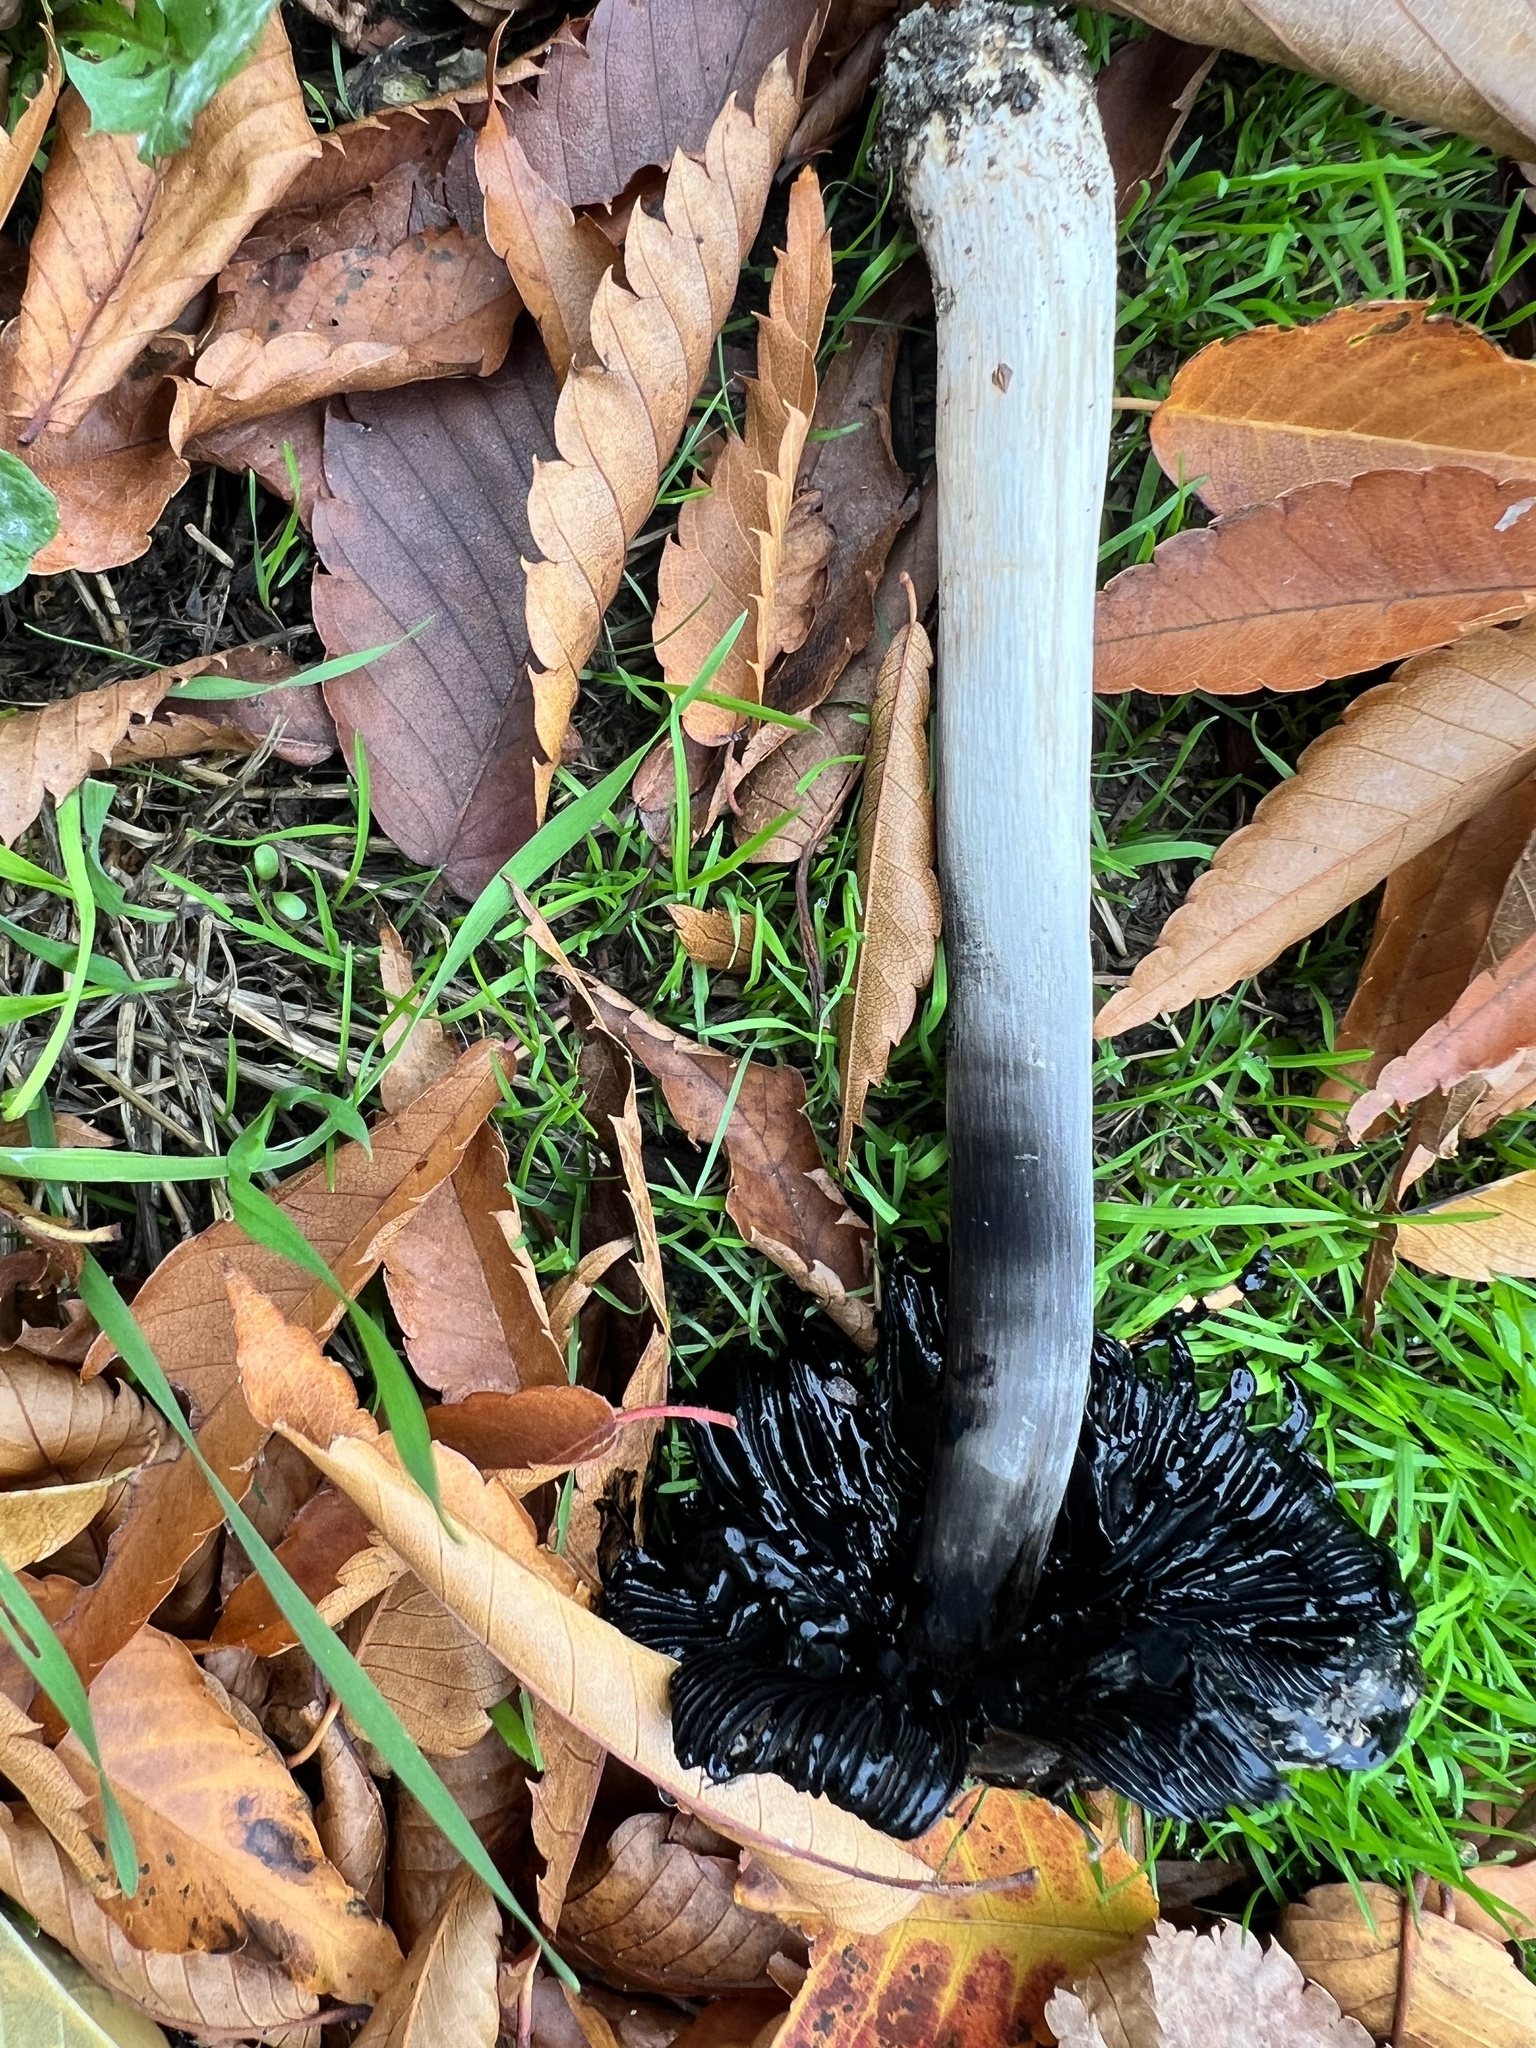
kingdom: Fungi
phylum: Basidiomycota
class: Agaricomycetes
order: Agaricales
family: Agaricaceae
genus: Coprinus
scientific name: Coprinus comatus
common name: Lawyer's wig
